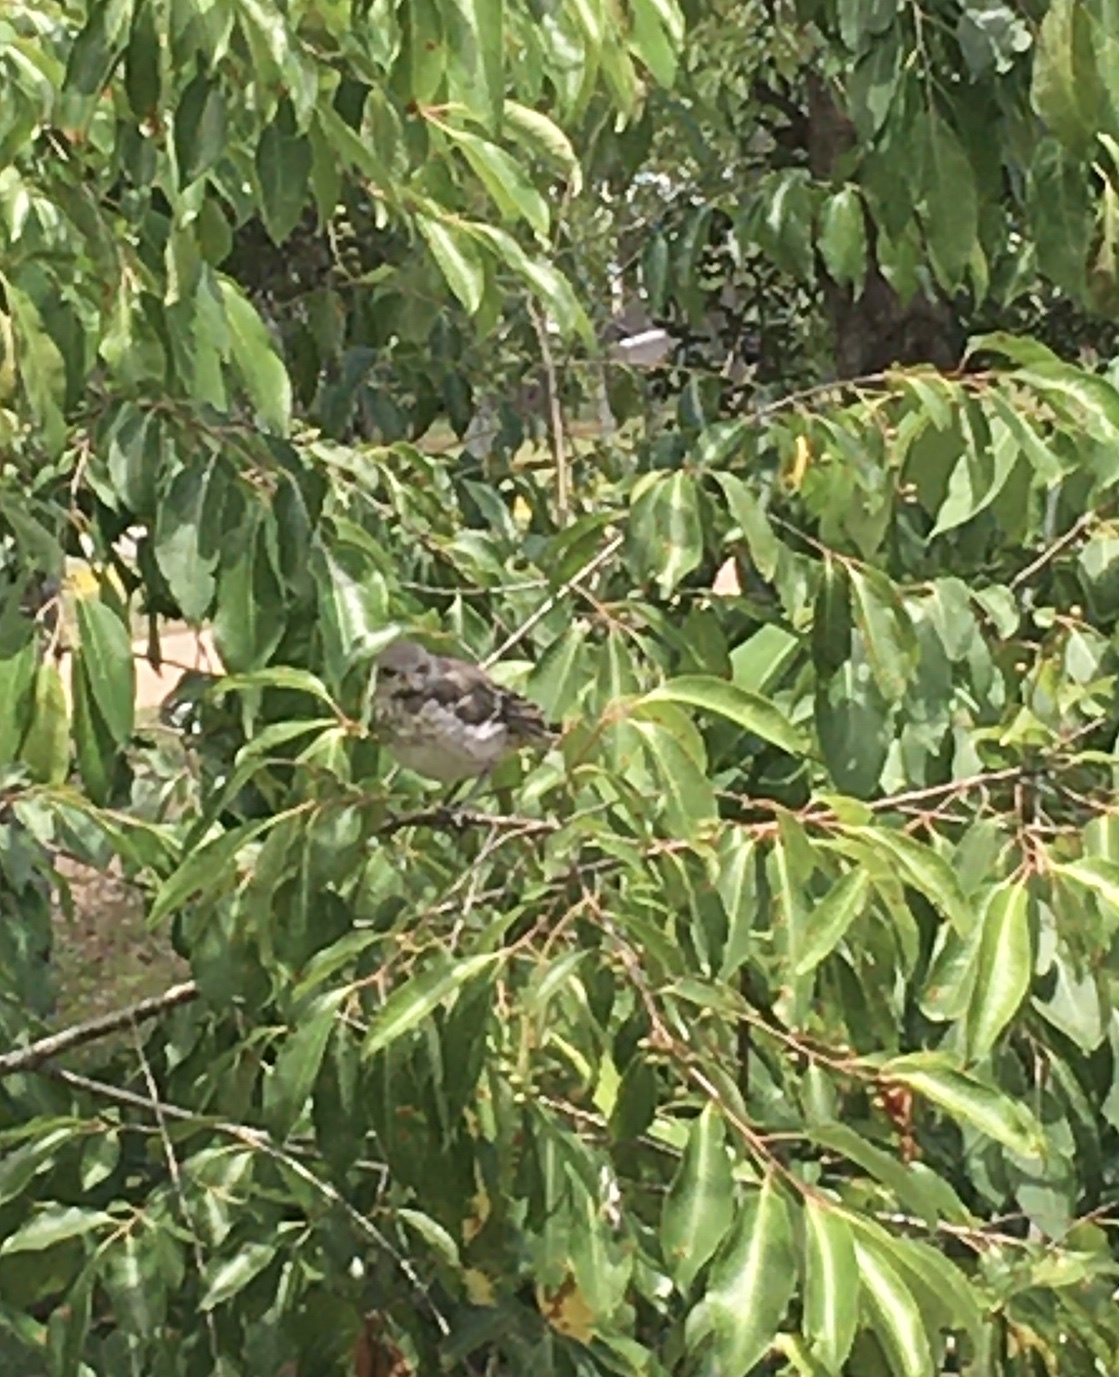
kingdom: Animalia
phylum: Chordata
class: Aves
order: Passeriformes
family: Mimidae
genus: Mimus
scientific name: Mimus polyglottos
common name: Northern mockingbird
